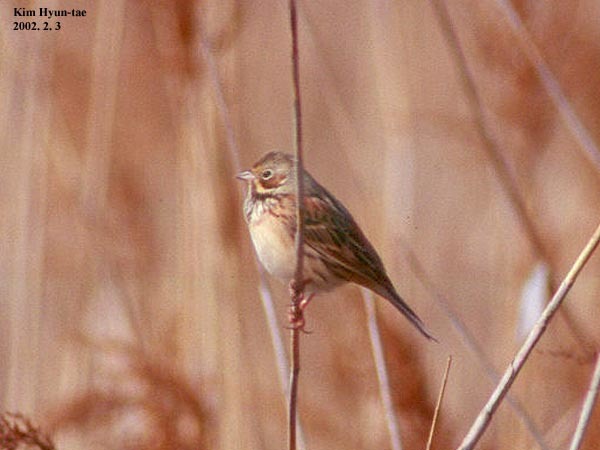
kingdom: Animalia
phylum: Chordata
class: Aves
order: Passeriformes
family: Emberizidae
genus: Emberiza
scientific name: Emberiza fucata
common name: Chestnut-eared bunting
